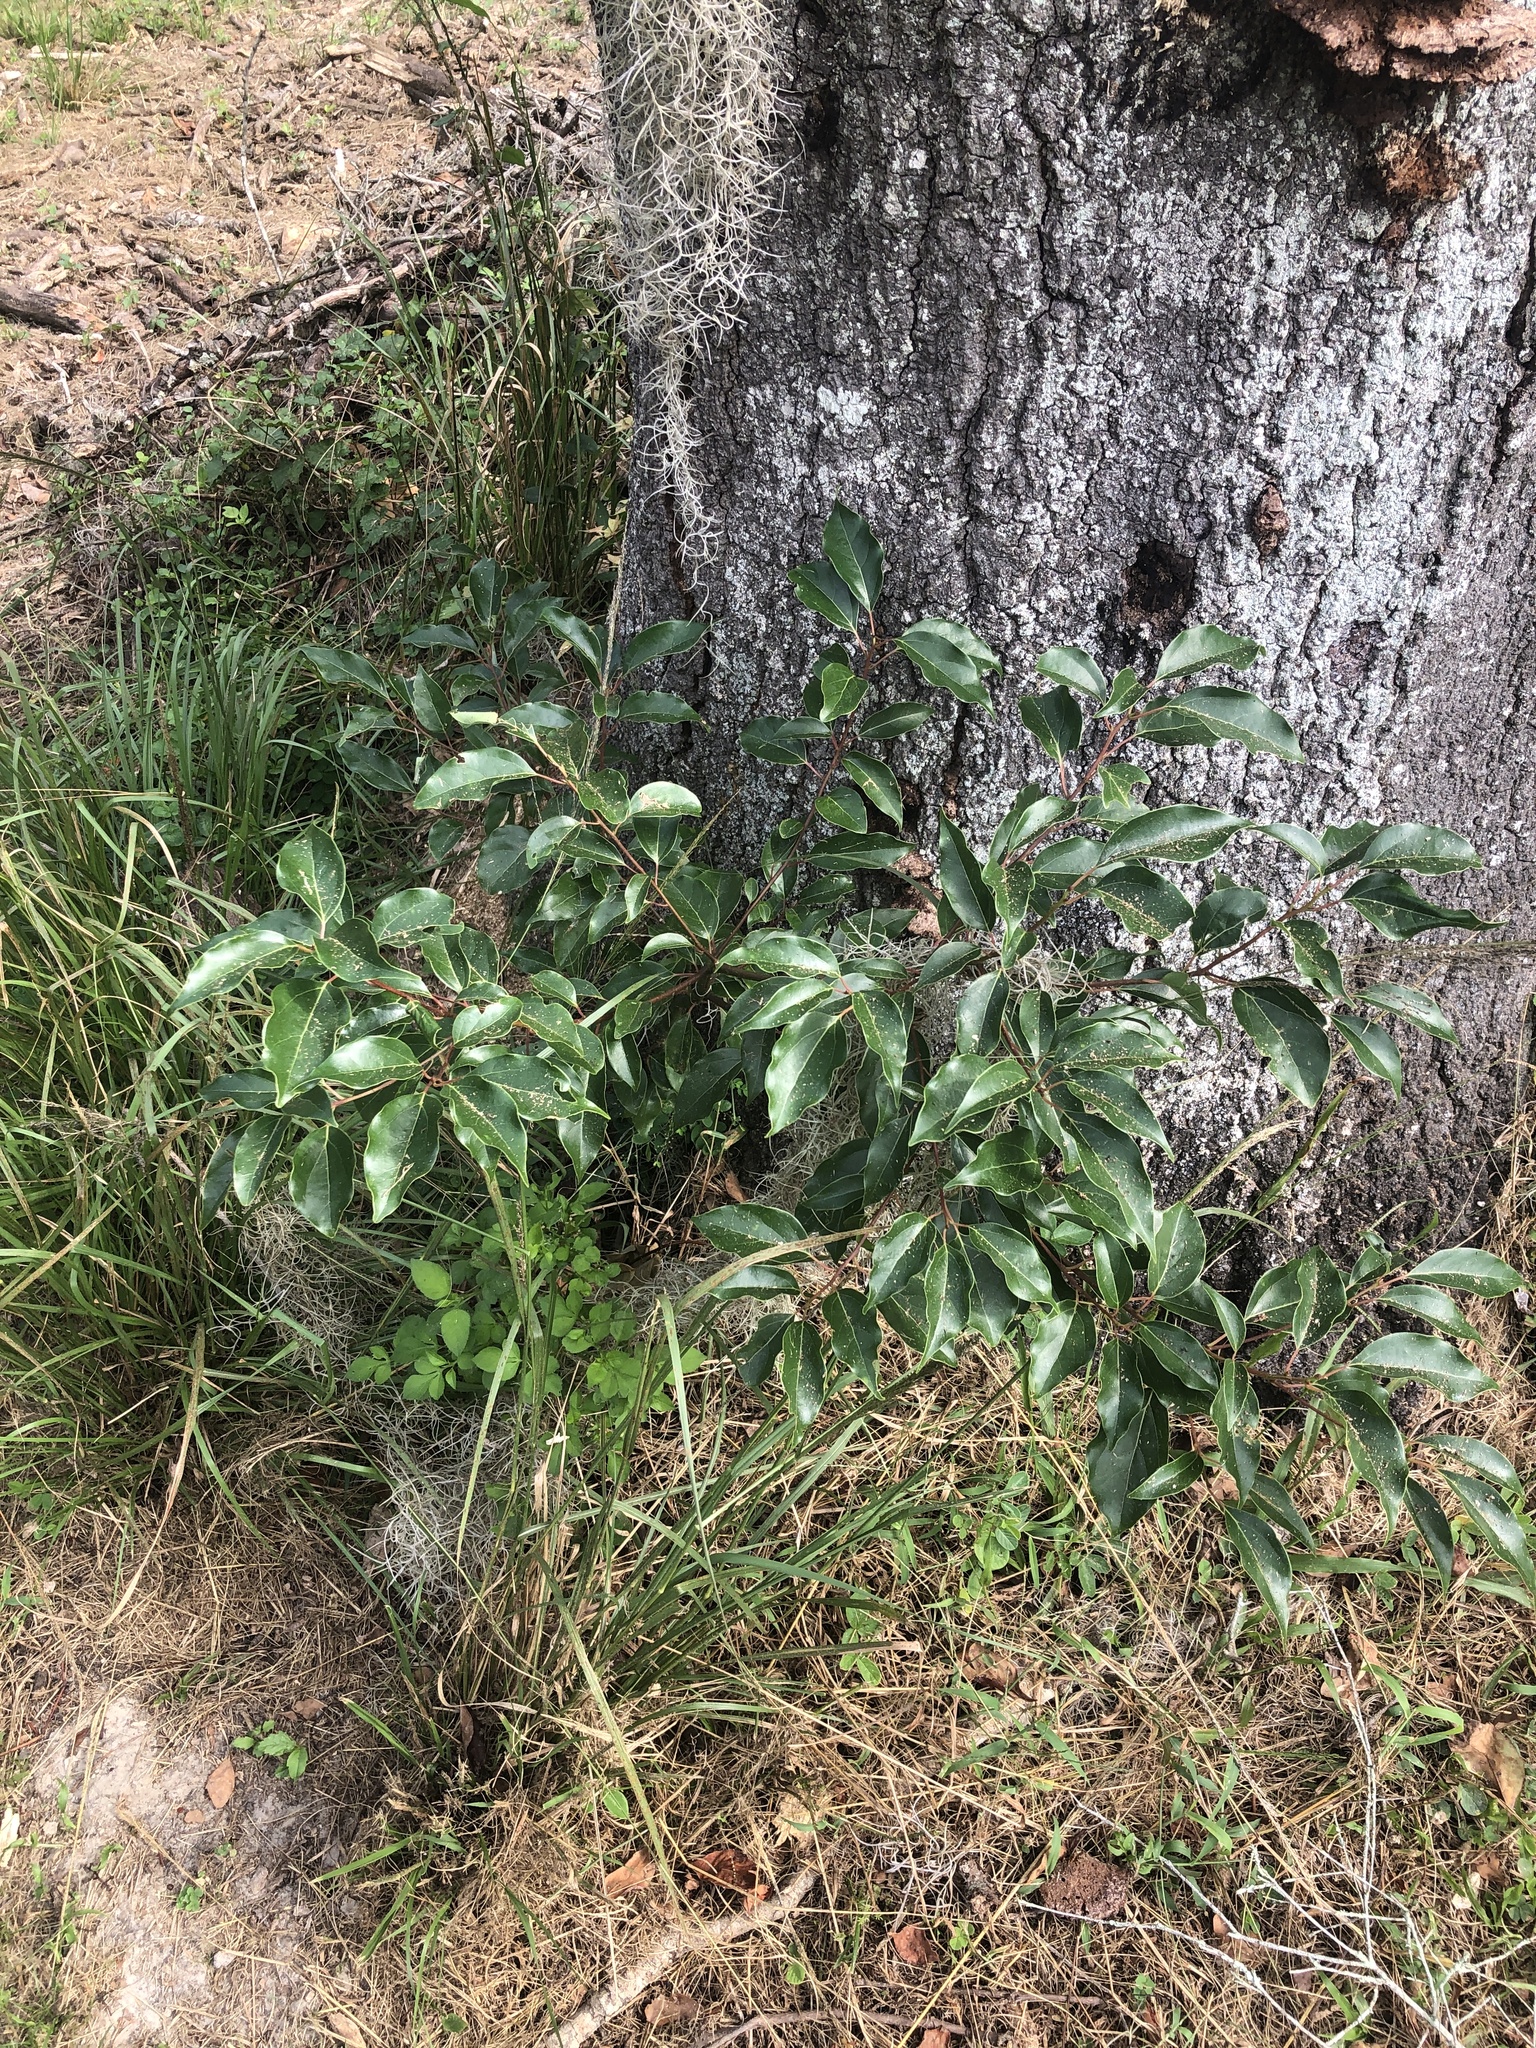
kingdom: Plantae
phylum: Tracheophyta
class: Magnoliopsida
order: Laurales
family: Lauraceae
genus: Cinnamomum
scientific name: Cinnamomum camphora
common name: Camphortree
